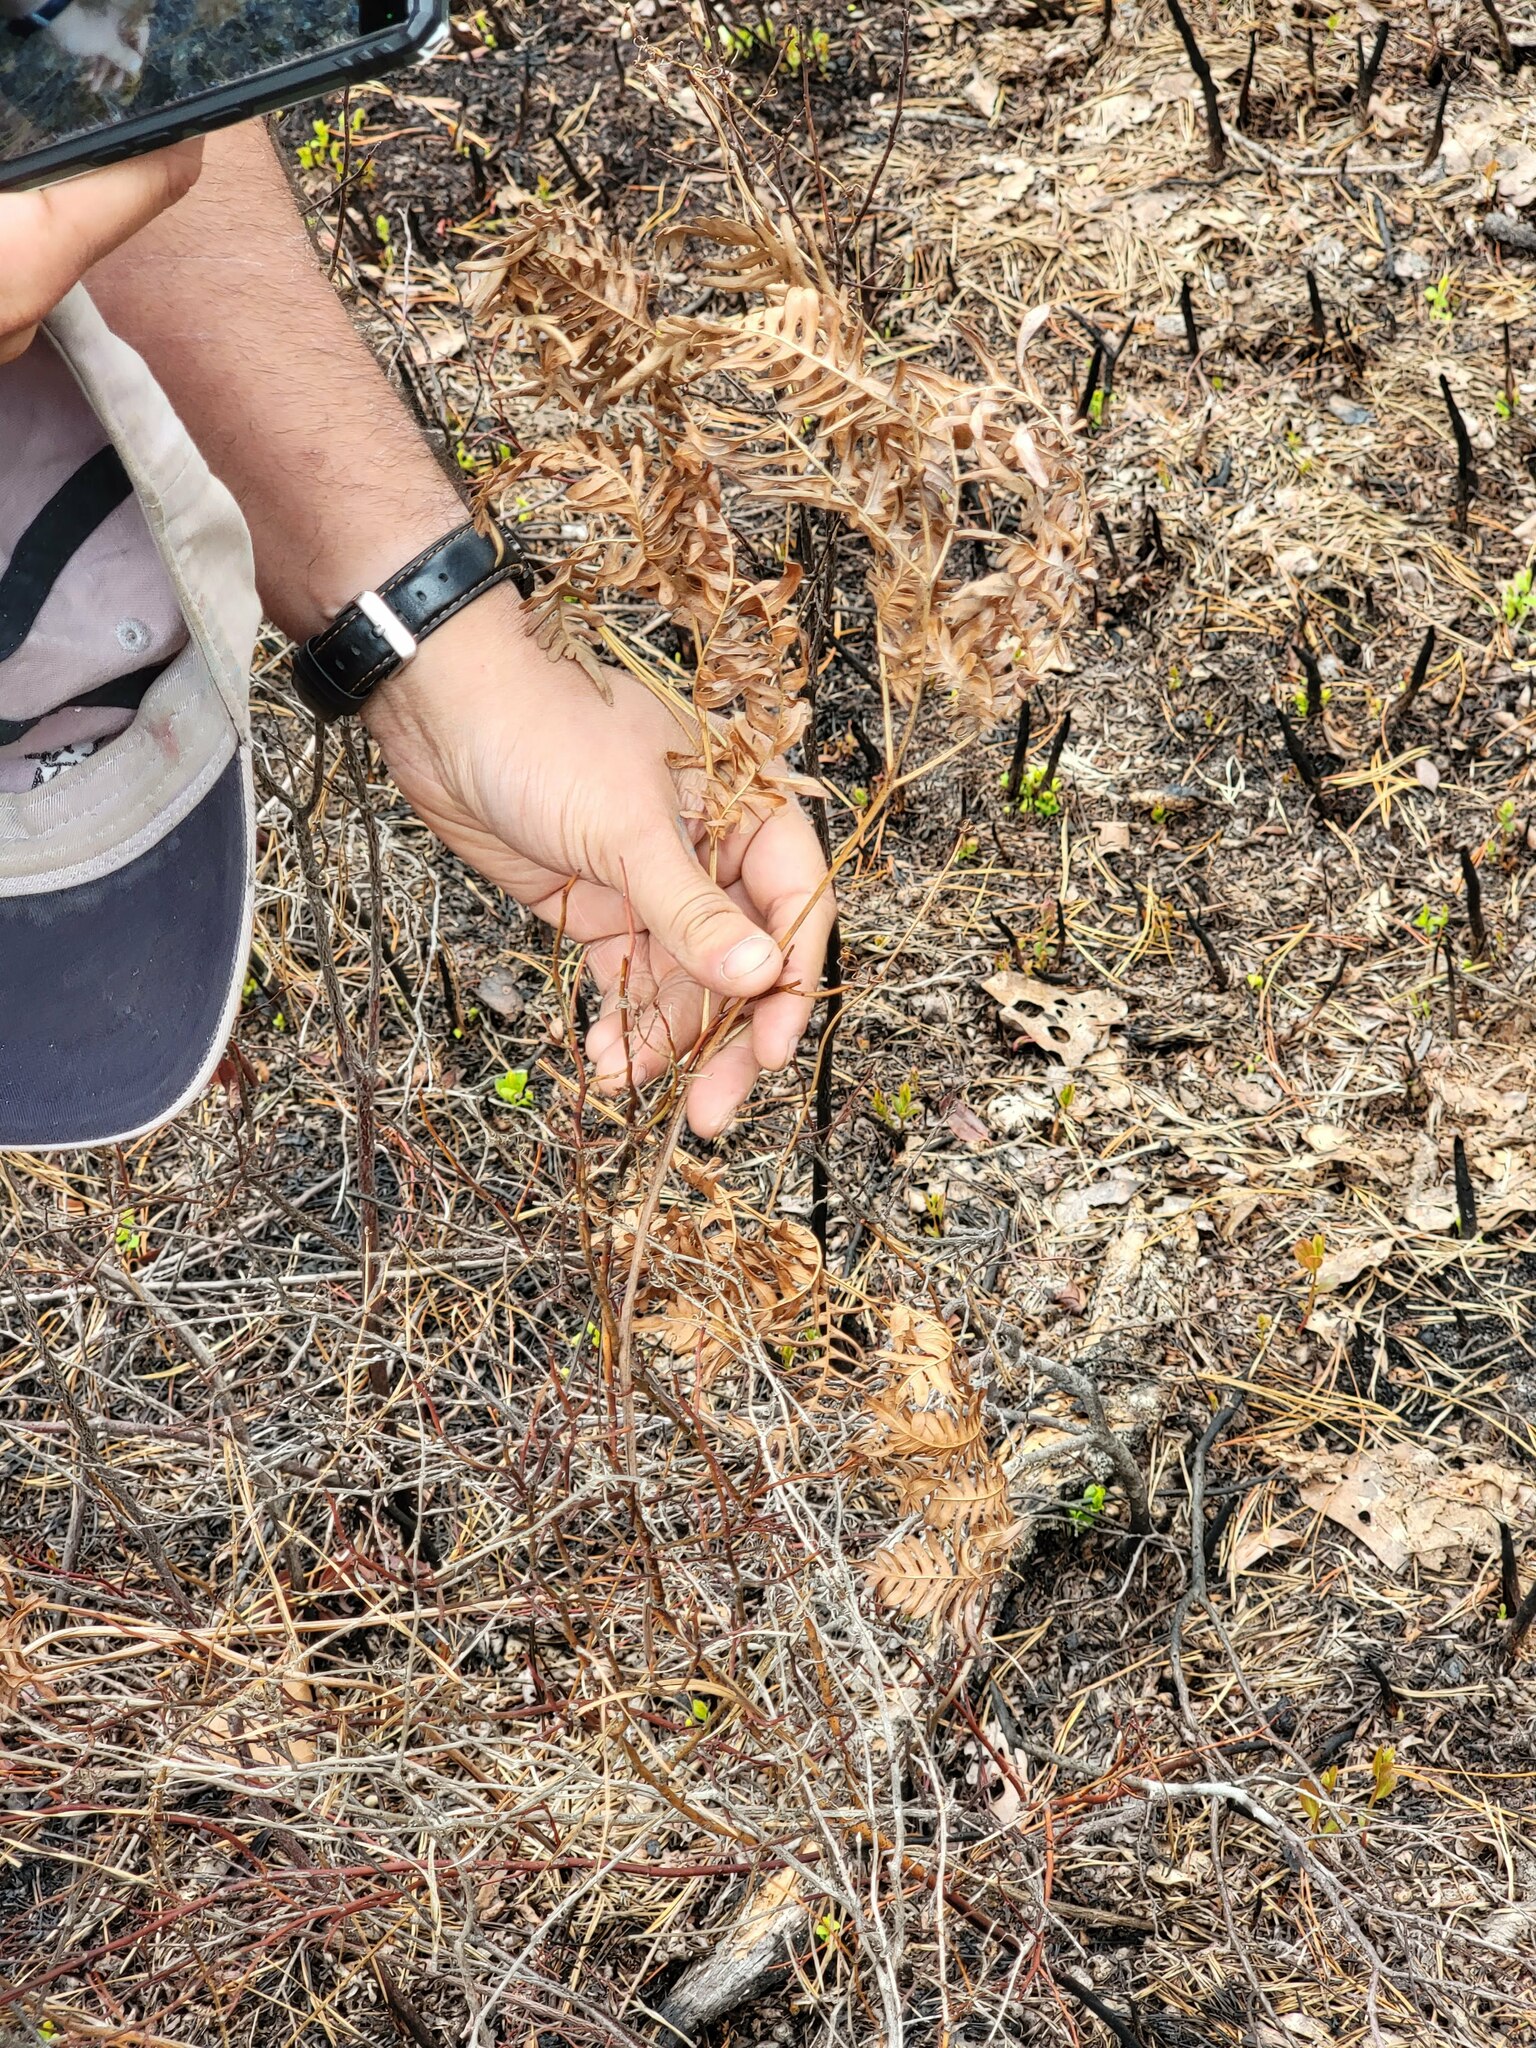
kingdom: Plantae
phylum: Tracheophyta
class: Polypodiopsida
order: Polypodiales
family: Dennstaedtiaceae
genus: Pteridium
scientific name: Pteridium aquilinum
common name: Bracken
